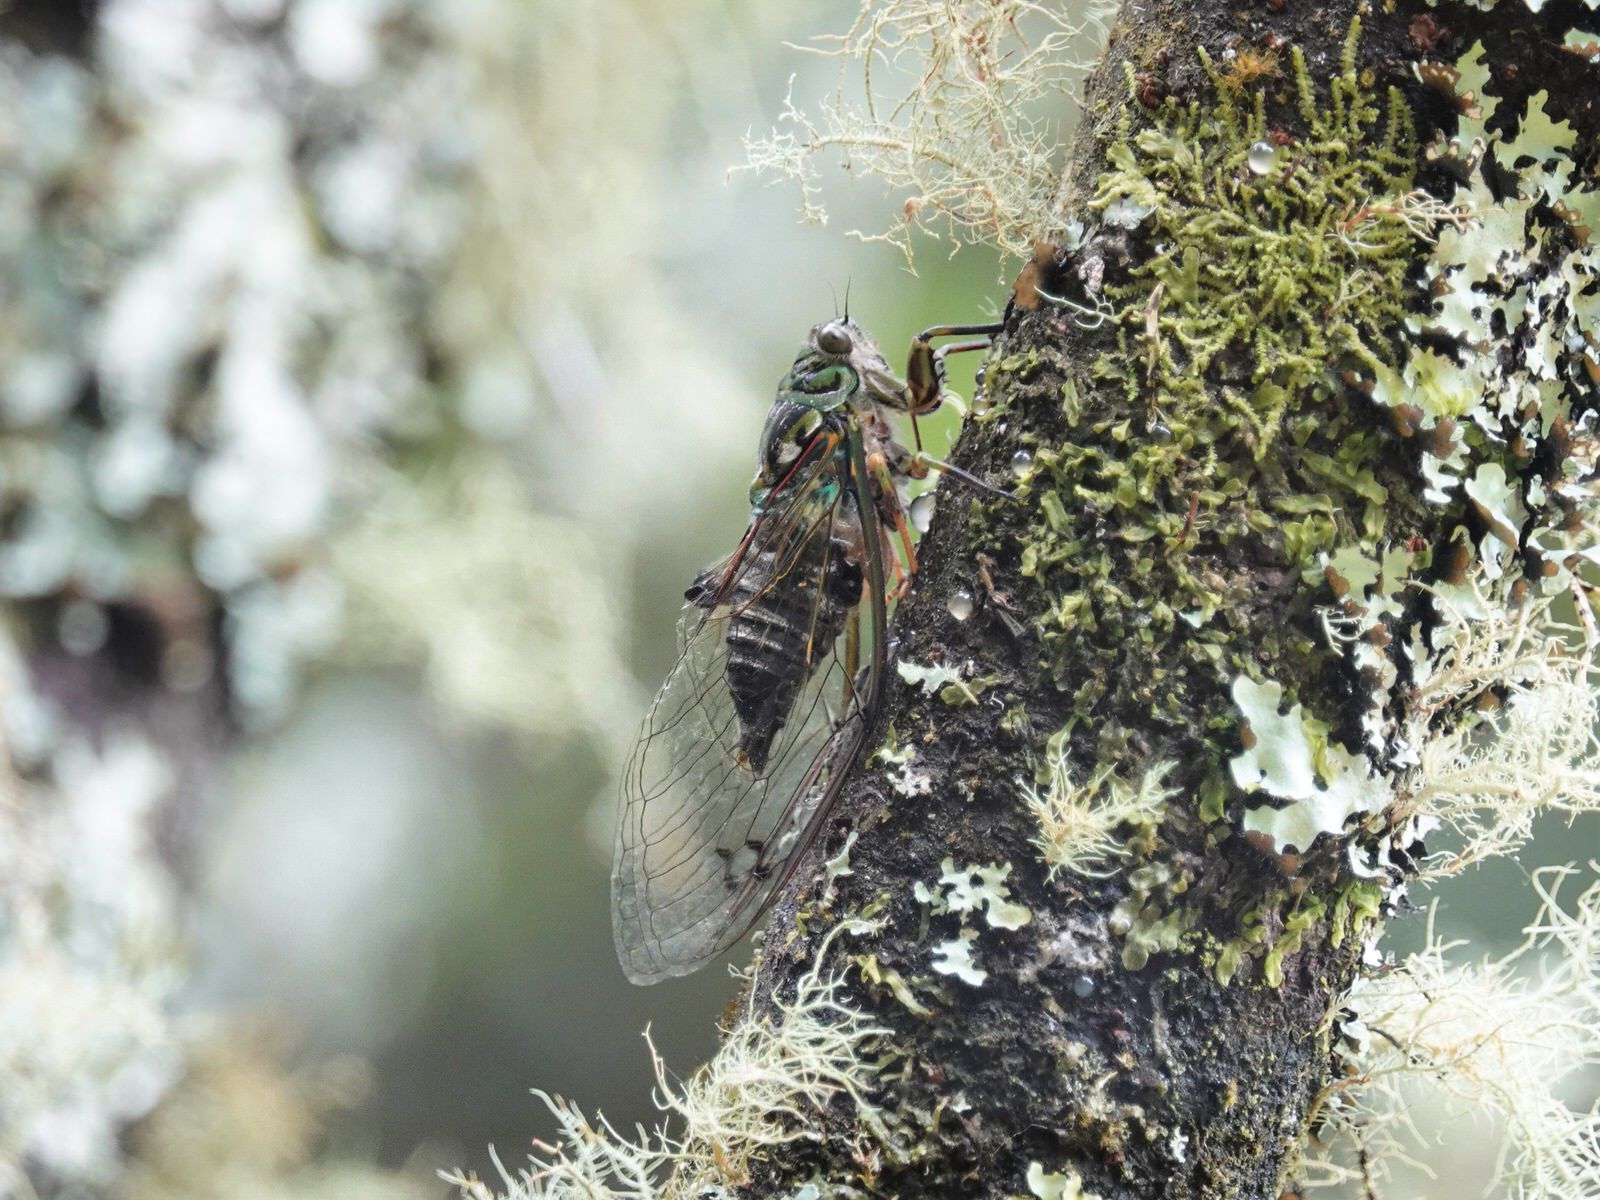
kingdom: Animalia
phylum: Arthropoda
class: Insecta
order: Hemiptera
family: Cicadidae
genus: Amphipsalta
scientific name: Amphipsalta zelandica
